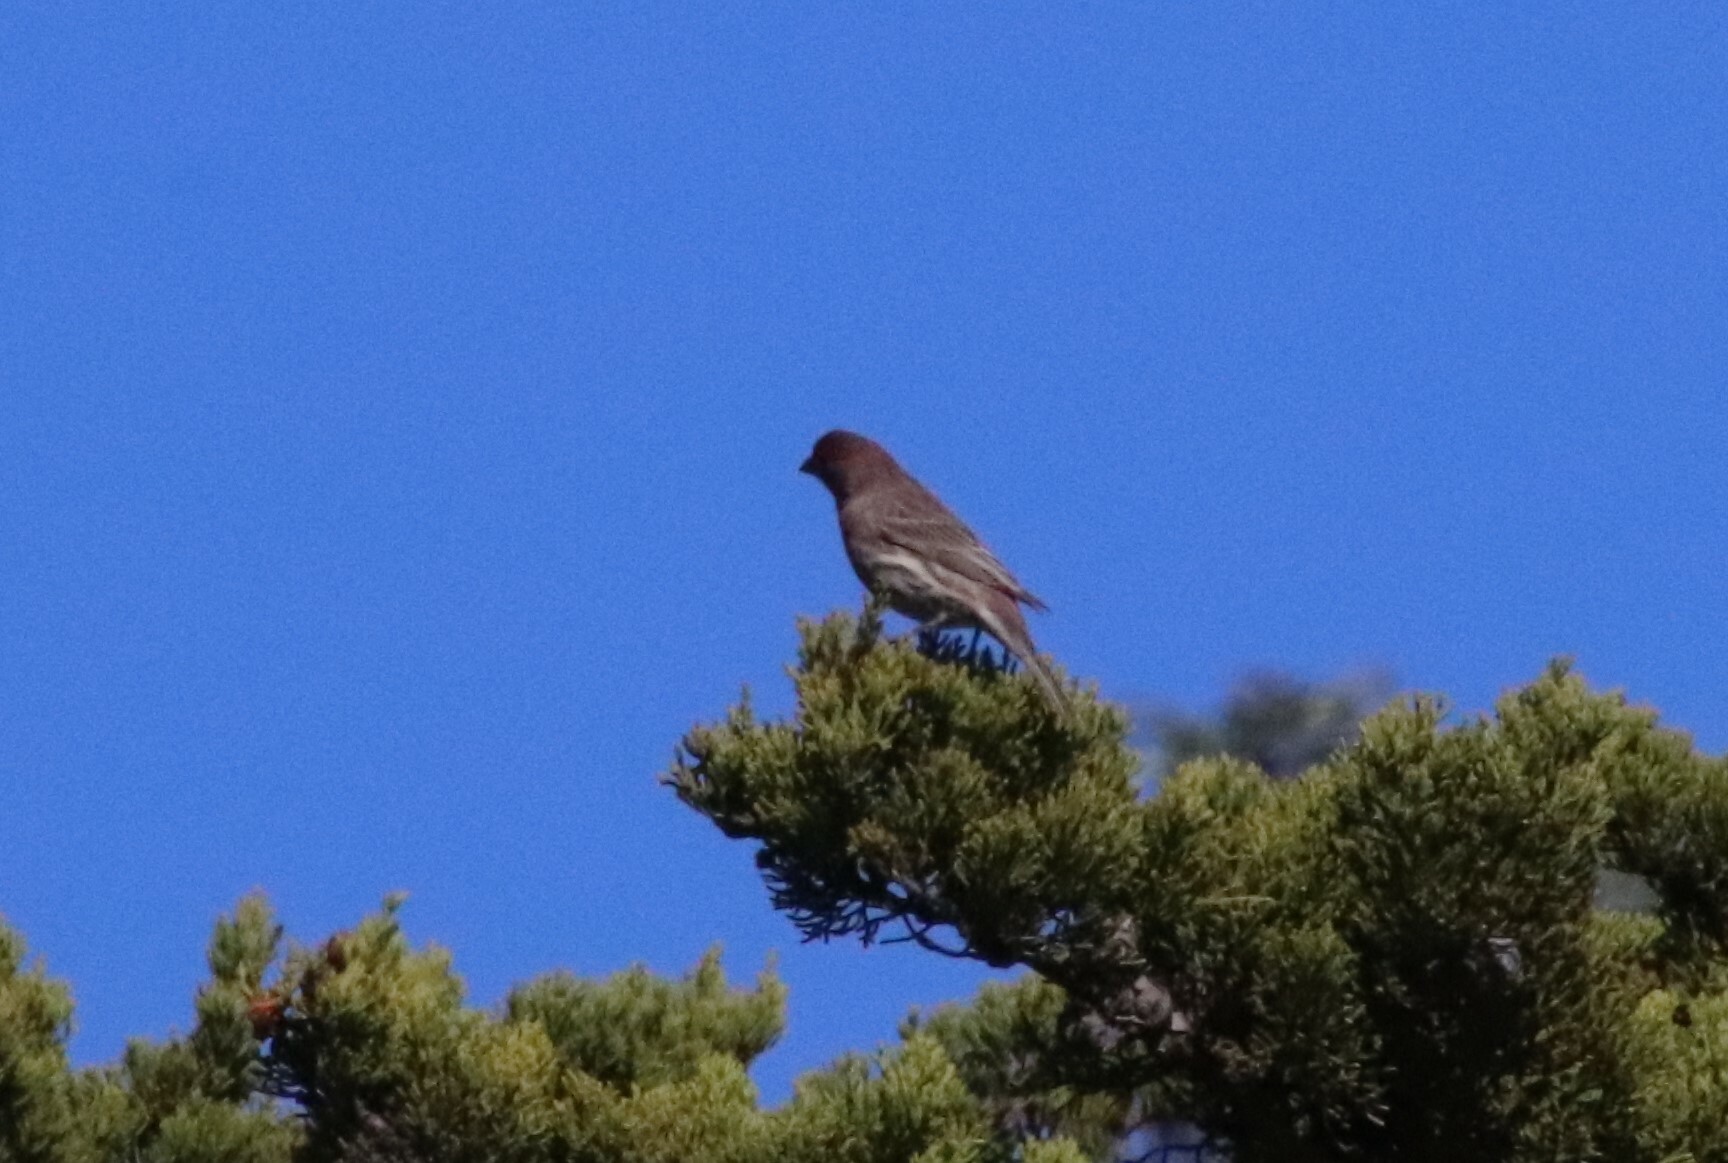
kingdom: Animalia
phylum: Chordata
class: Aves
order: Passeriformes
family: Fringillidae
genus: Haemorhous
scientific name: Haemorhous mexicanus
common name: House finch
